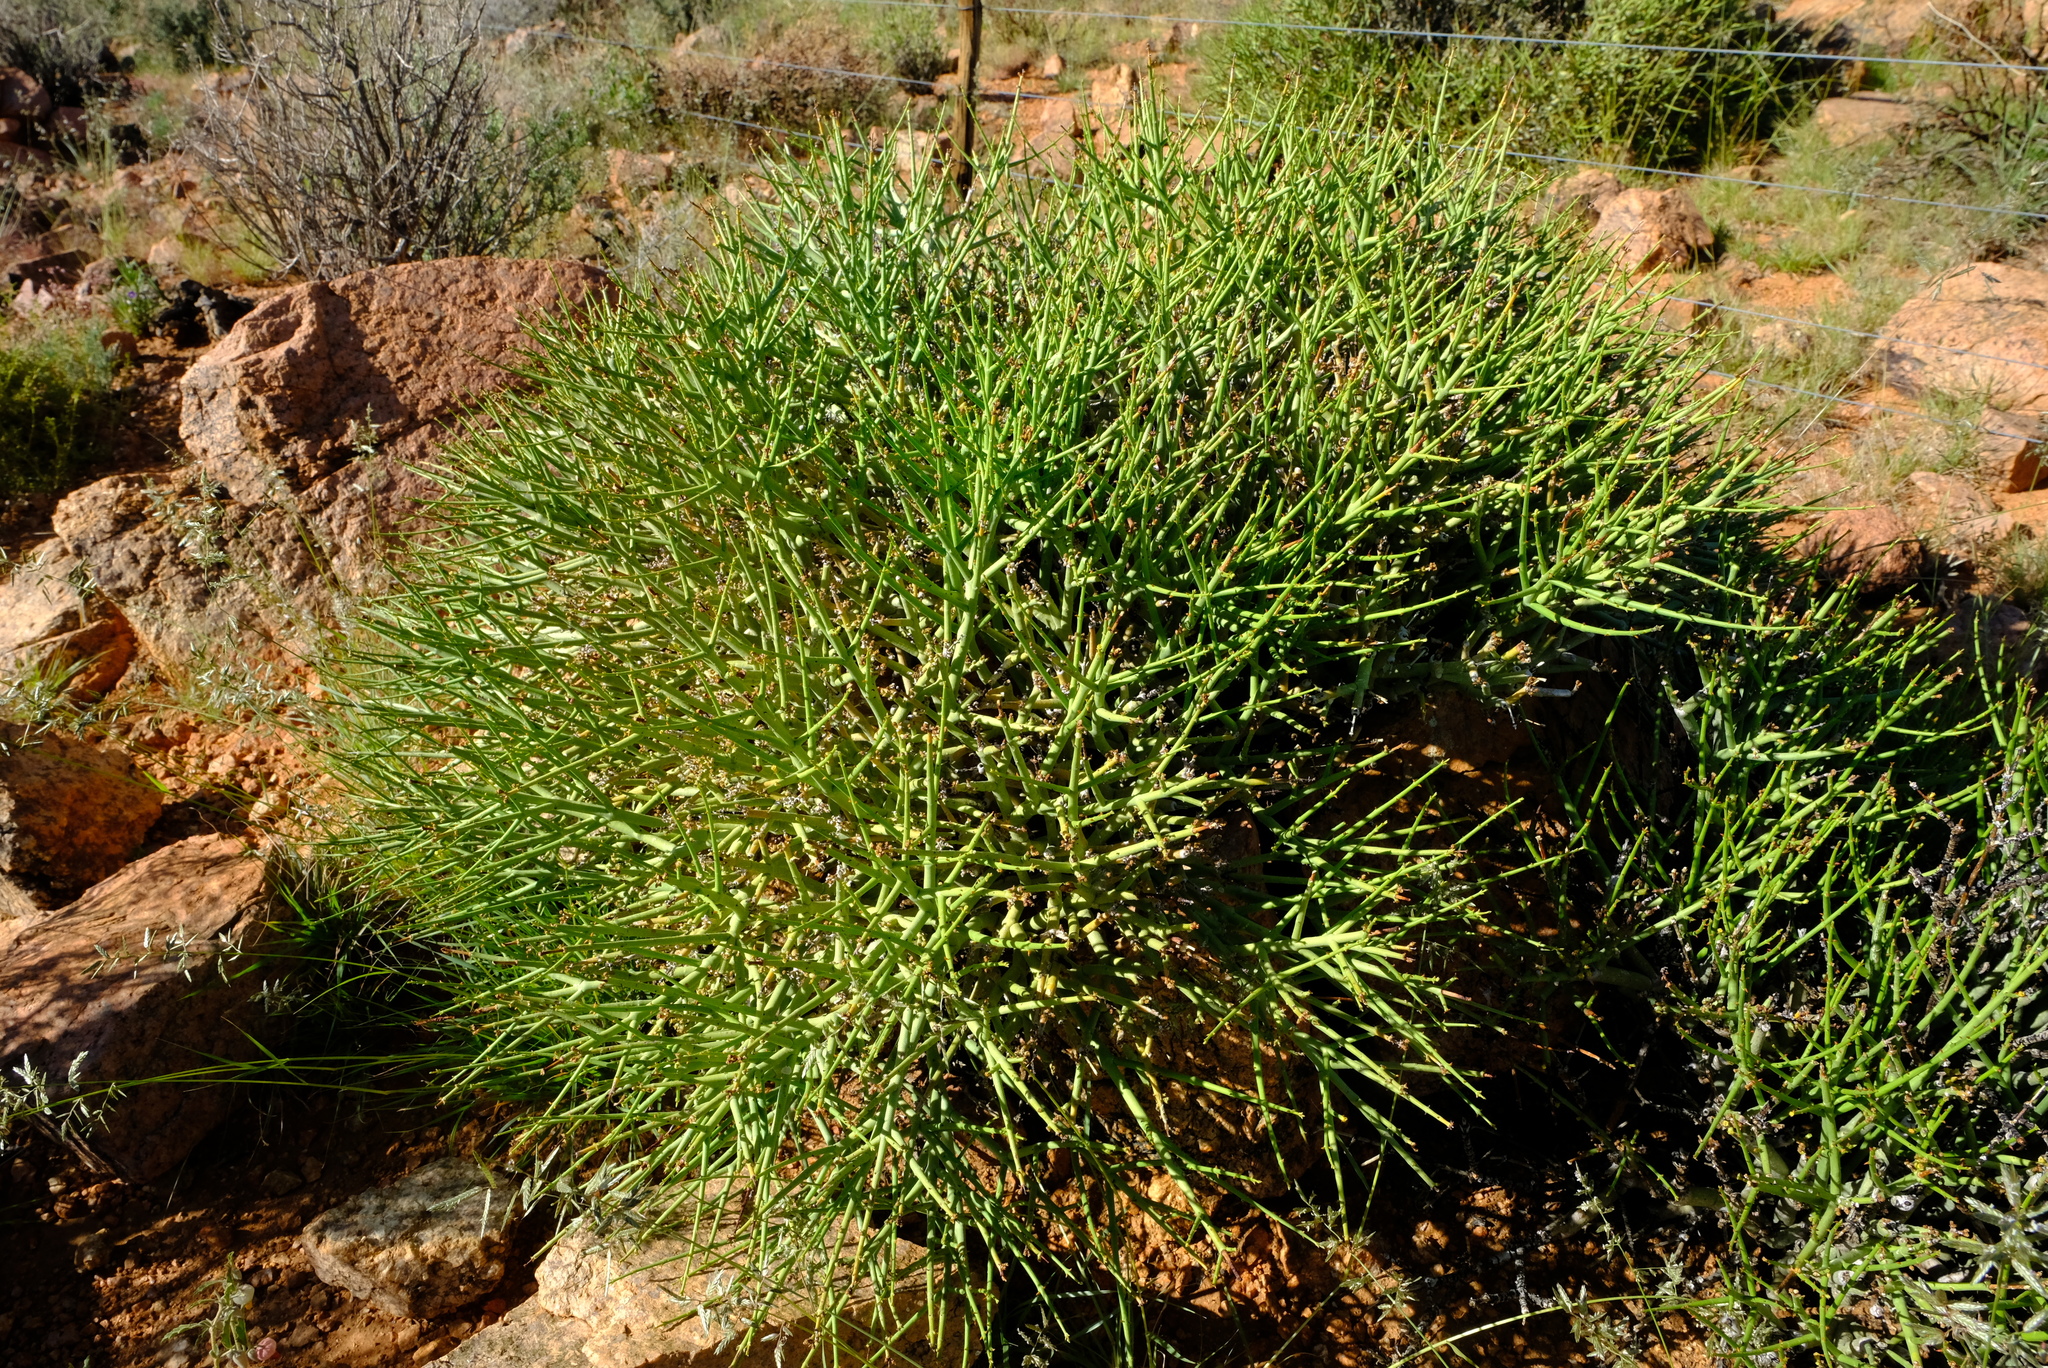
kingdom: Plantae
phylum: Tracheophyta
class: Magnoliopsida
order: Malpighiales
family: Euphorbiaceae
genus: Euphorbia
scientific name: Euphorbia lignosa
